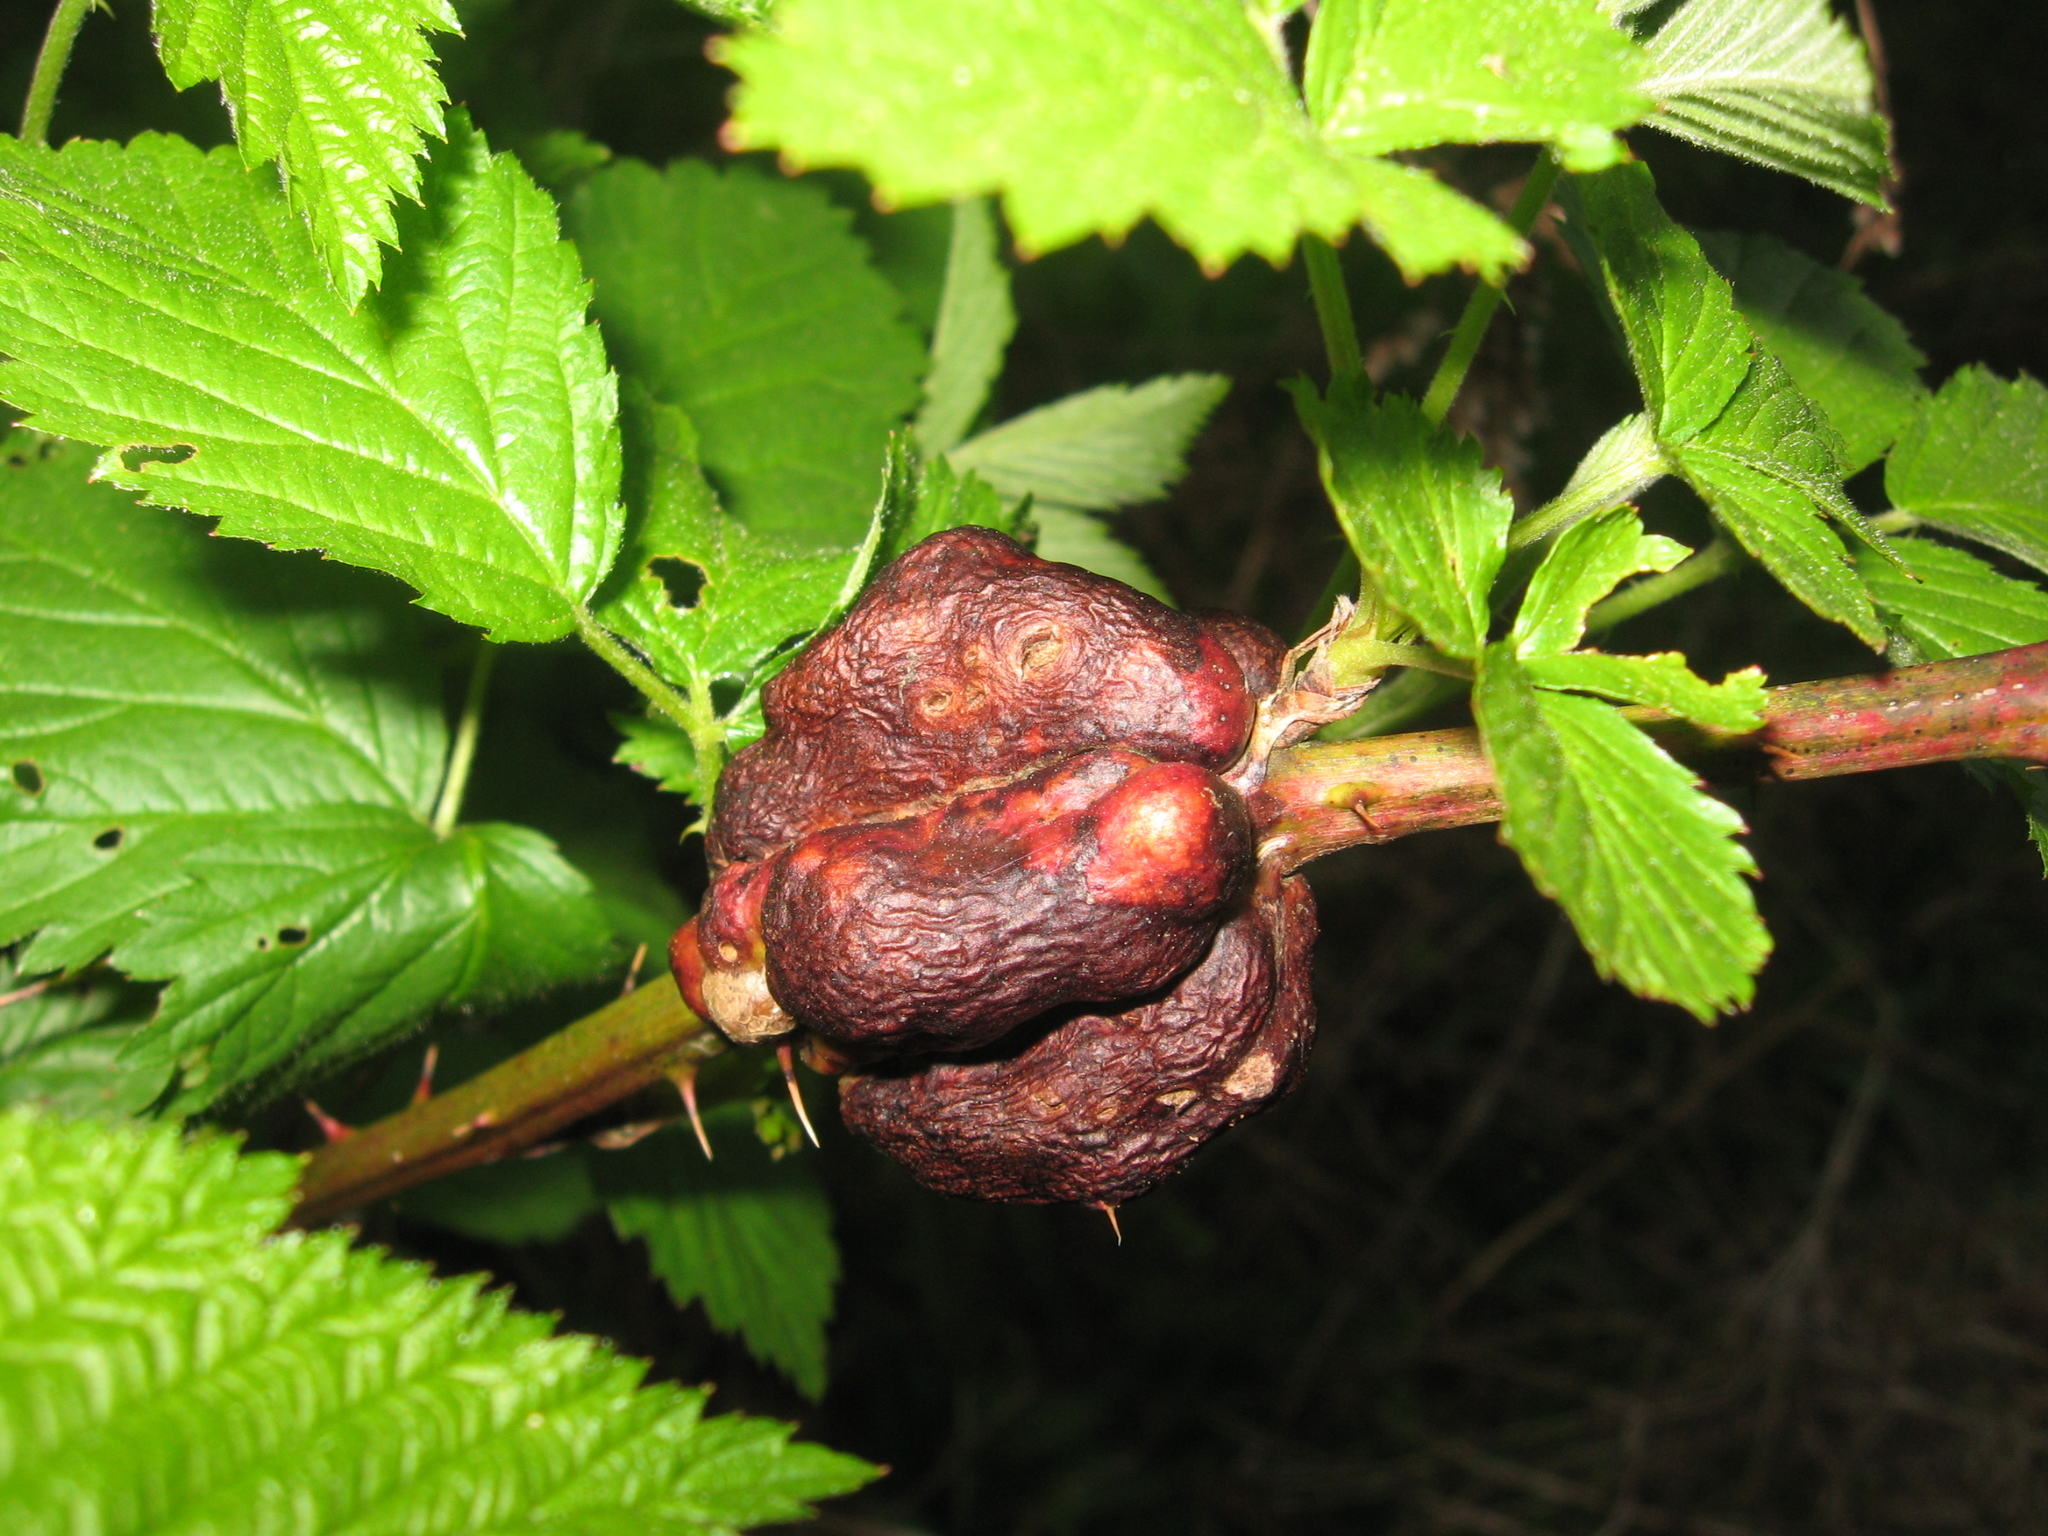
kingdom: Animalia
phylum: Arthropoda
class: Insecta
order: Hymenoptera
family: Cynipidae
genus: Diastrophus
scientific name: Diastrophus
